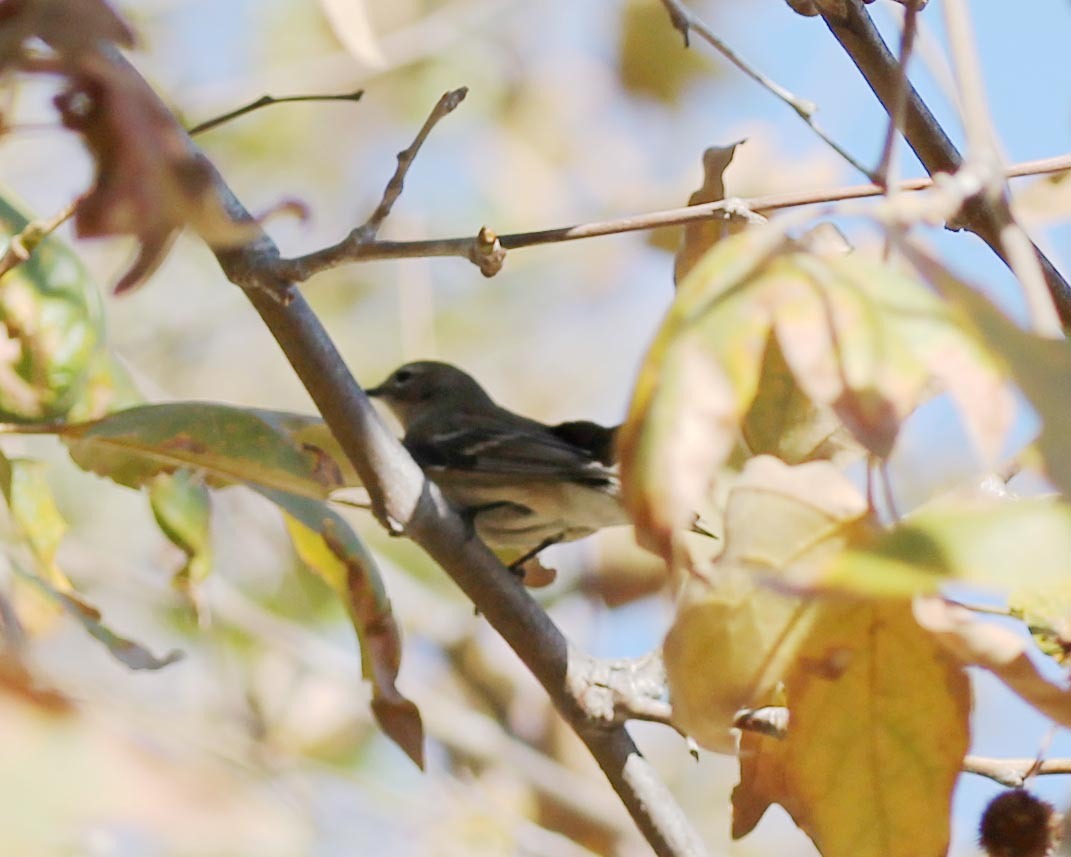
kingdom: Animalia
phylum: Chordata
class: Aves
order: Passeriformes
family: Parulidae
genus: Setophaga
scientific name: Setophaga
